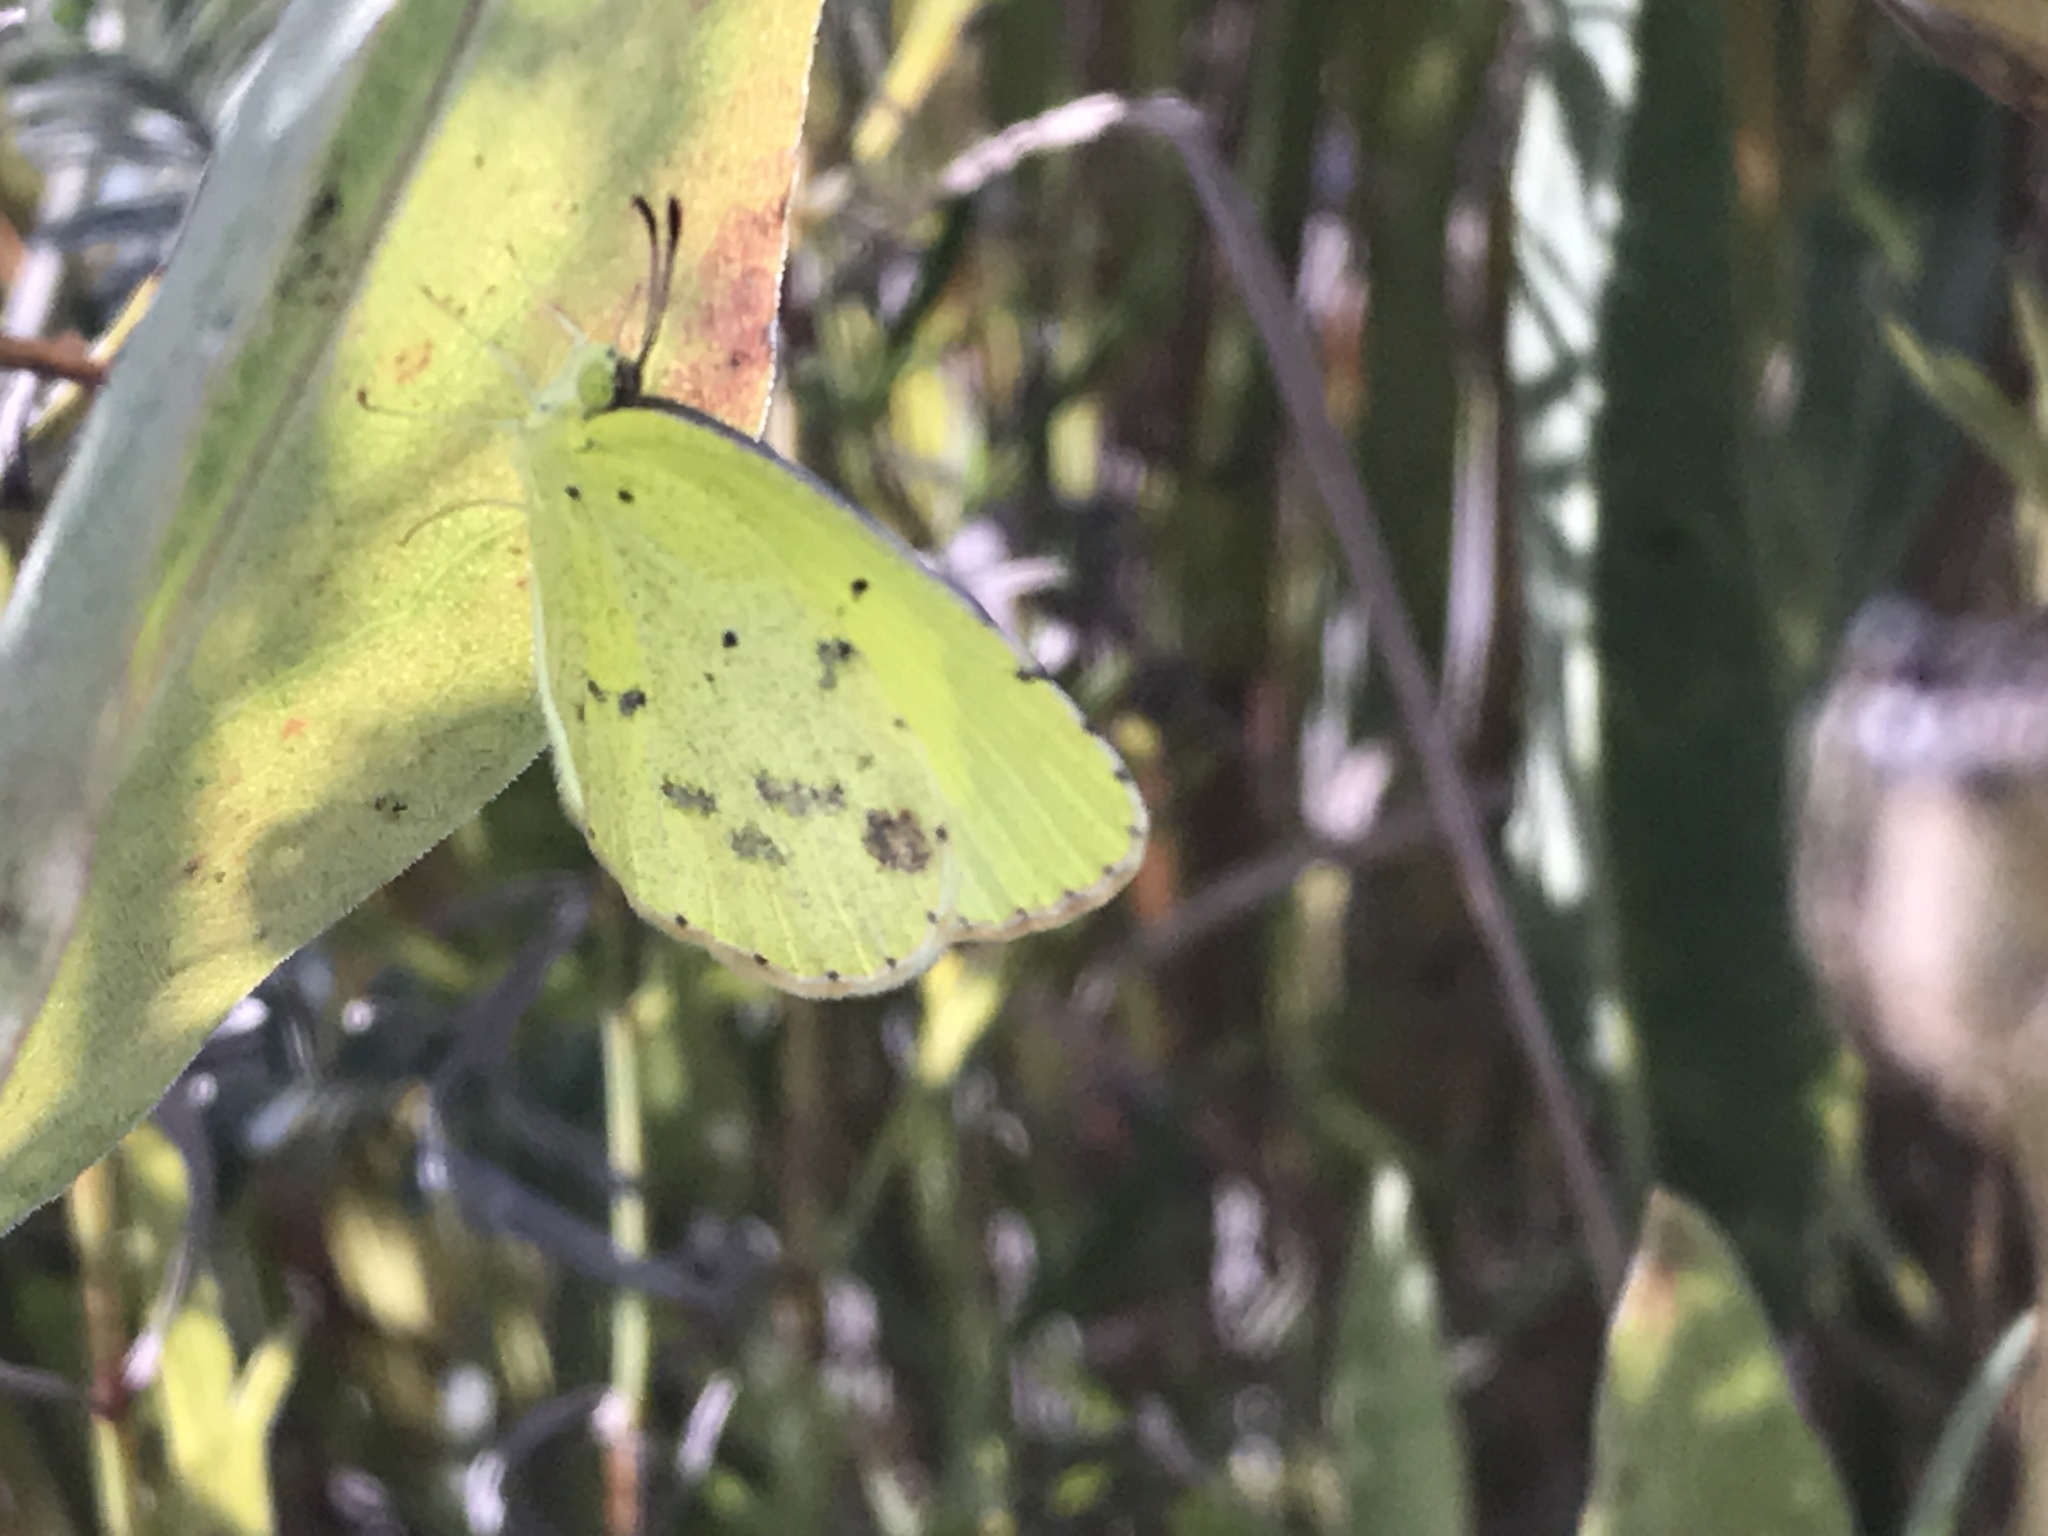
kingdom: Animalia
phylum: Arthropoda
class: Insecta
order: Lepidoptera
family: Pieridae
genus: Pyrisitia
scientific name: Pyrisitia lisa
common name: Little yellow
